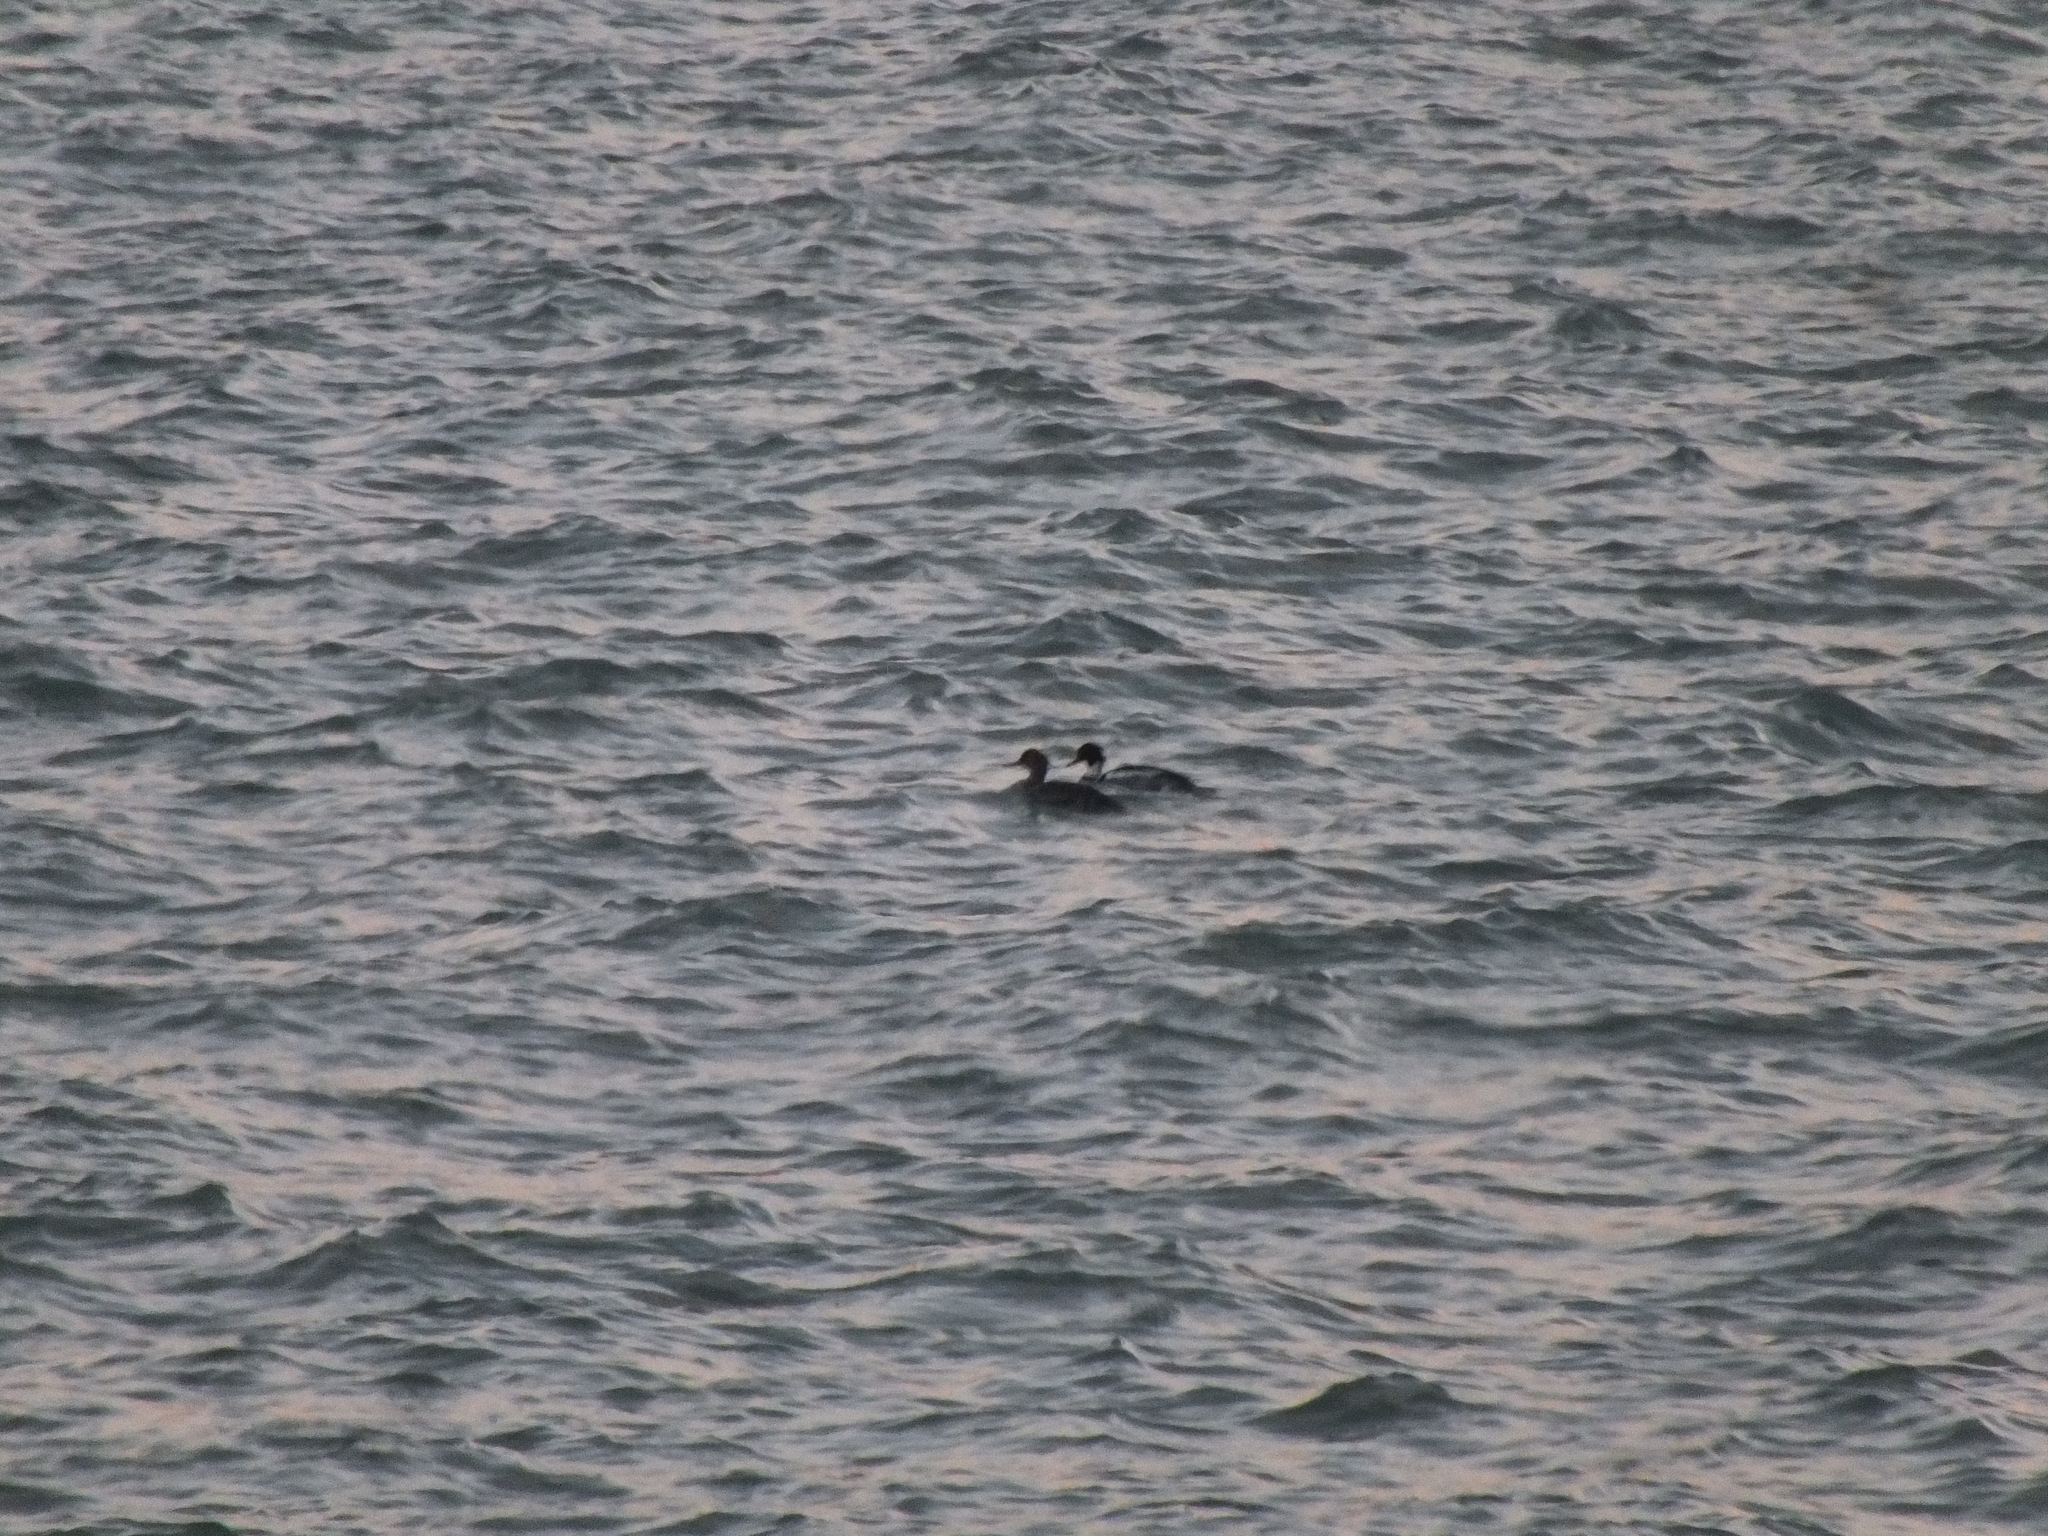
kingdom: Animalia
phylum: Chordata
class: Aves
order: Anseriformes
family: Anatidae
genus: Mergus
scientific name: Mergus serrator
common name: Red-breasted merganser
